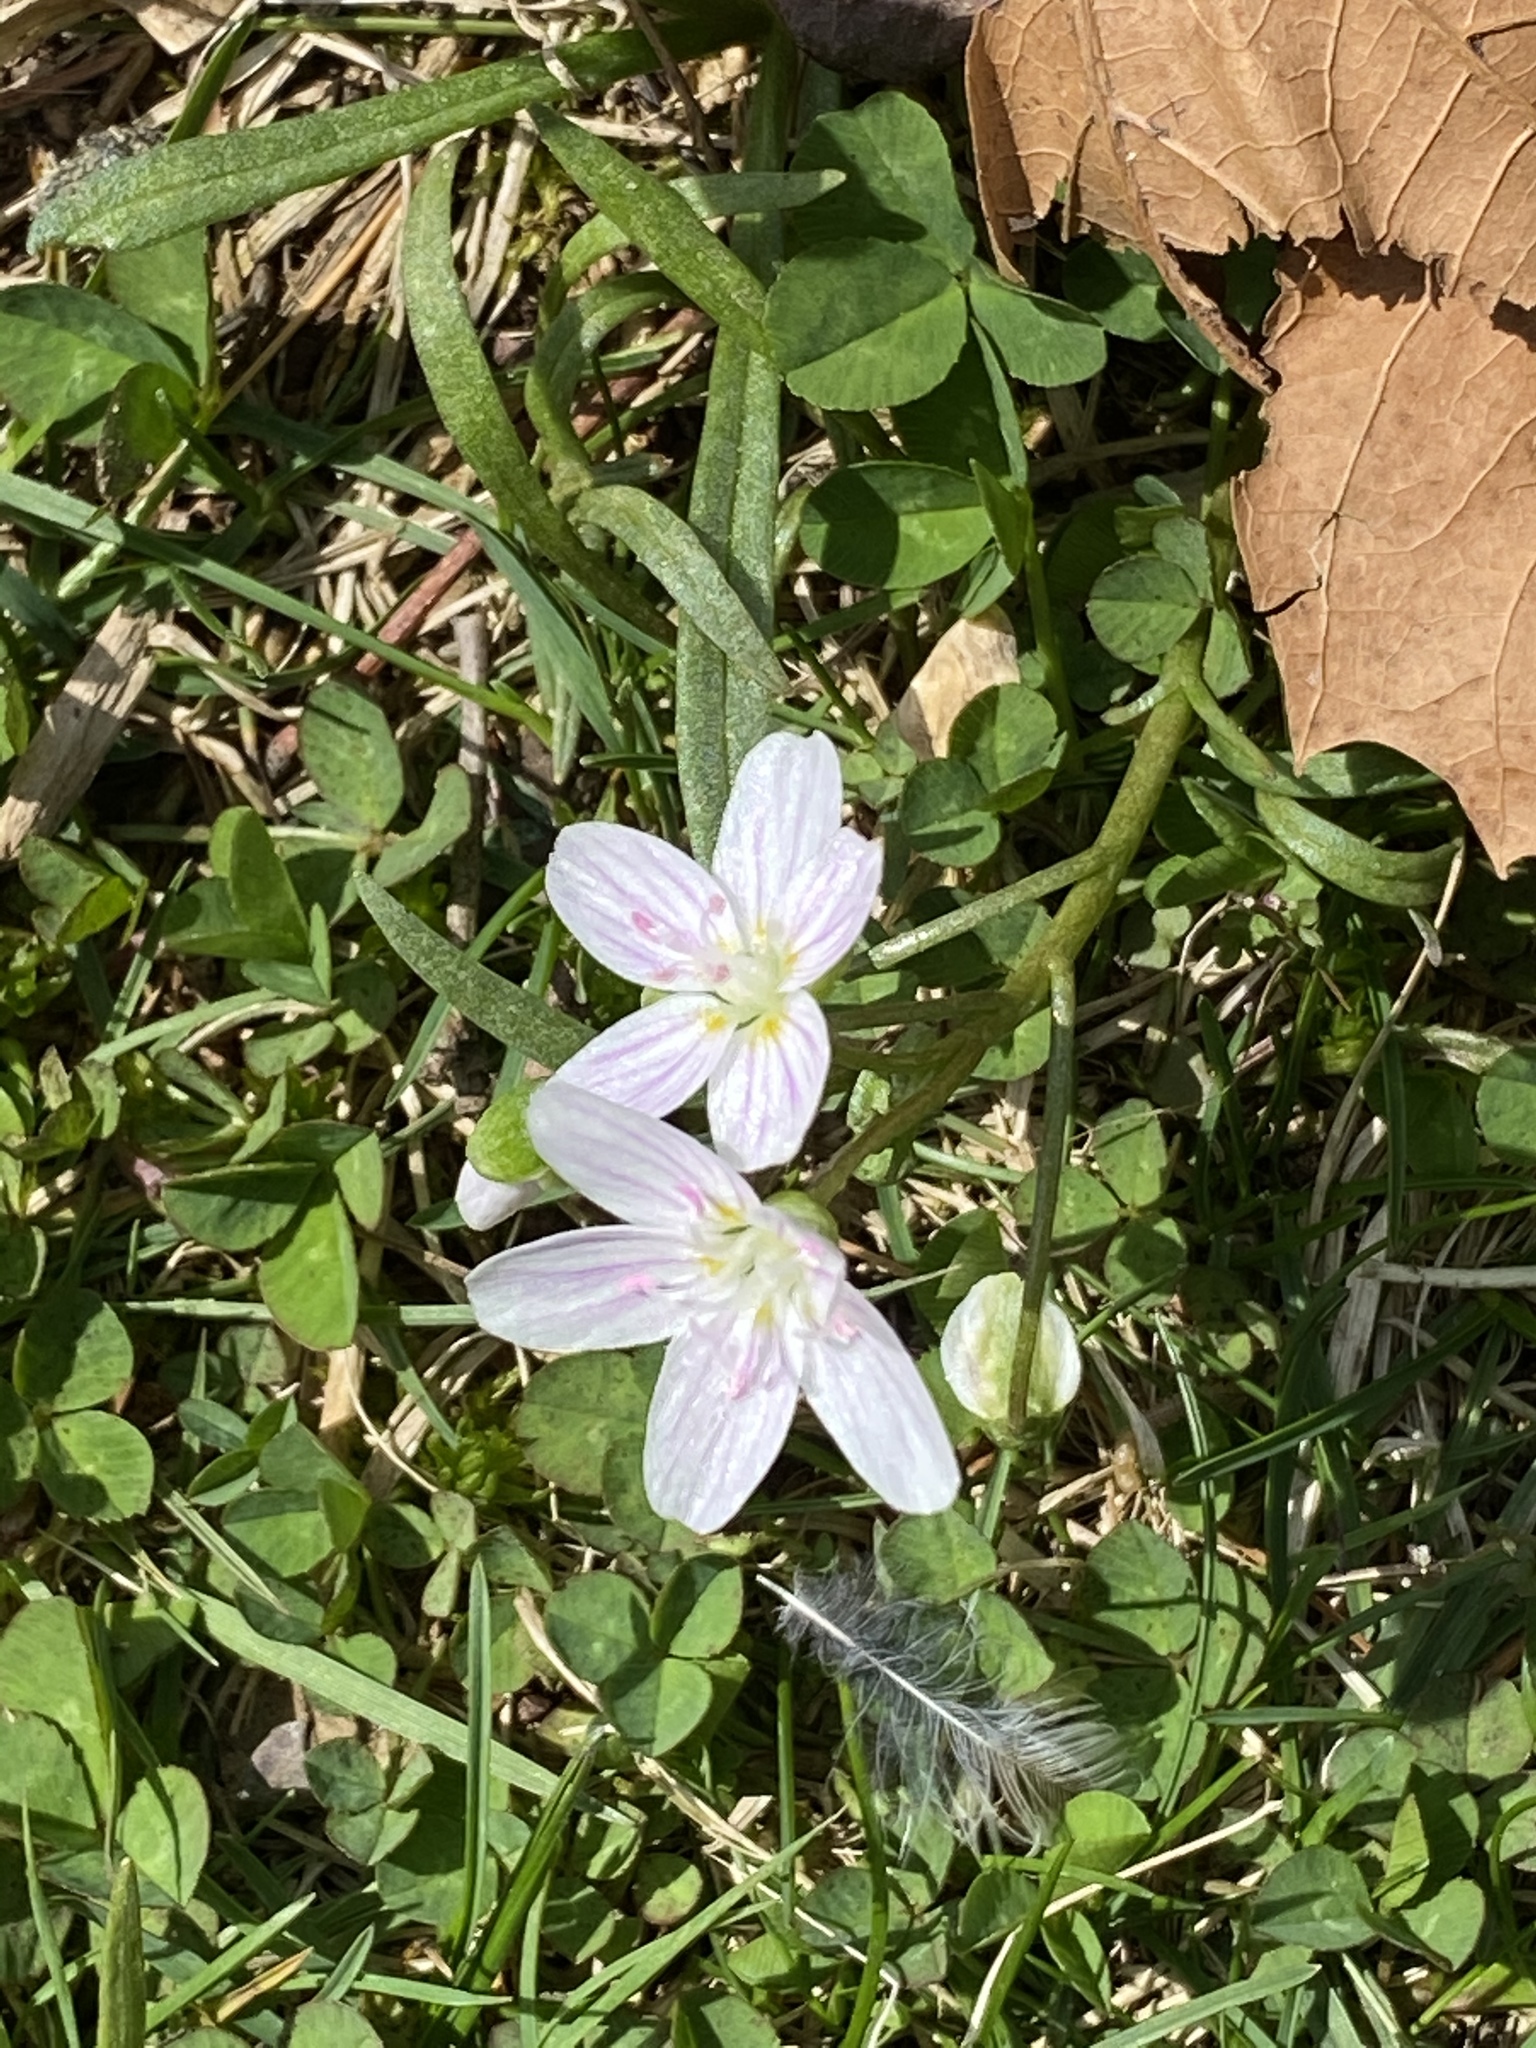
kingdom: Plantae
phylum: Tracheophyta
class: Magnoliopsida
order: Caryophyllales
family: Montiaceae
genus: Claytonia
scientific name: Claytonia virginica
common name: Virginia springbeauty
